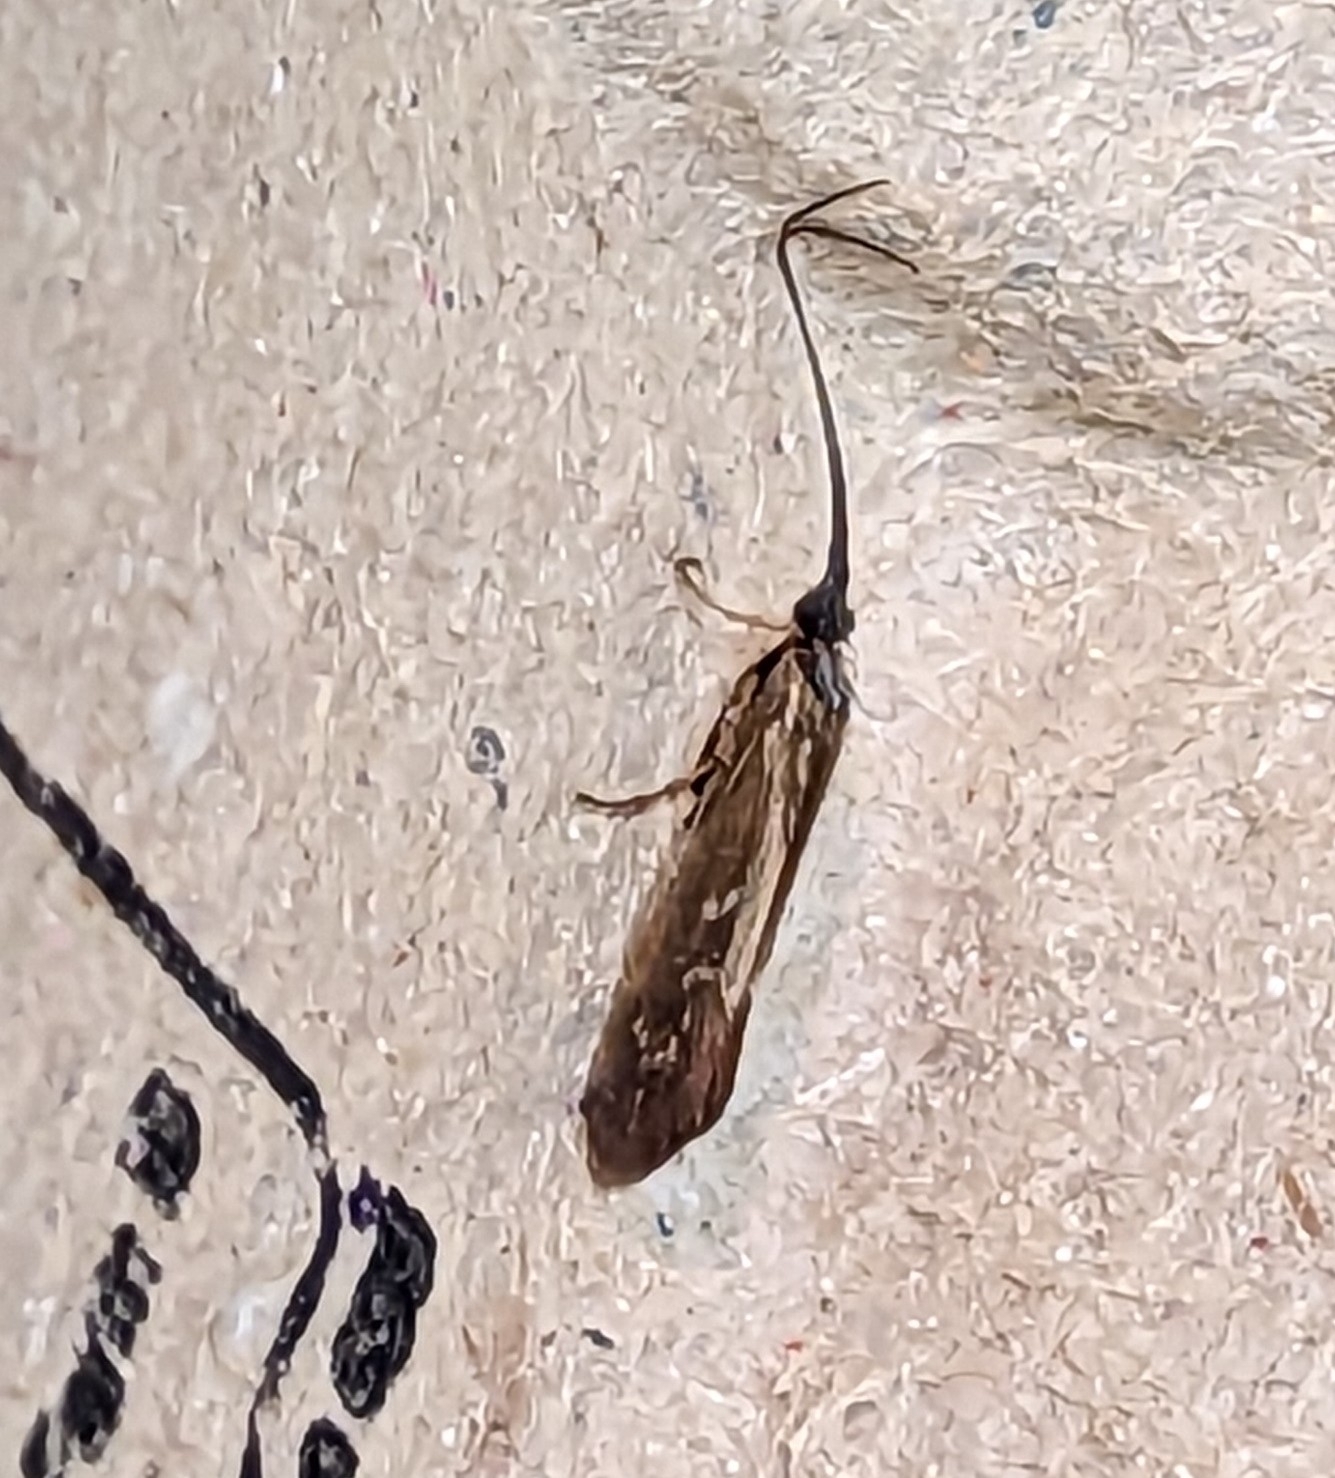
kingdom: Animalia
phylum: Arthropoda
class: Insecta
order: Trichoptera
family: Limnephilidae
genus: Limnephilus
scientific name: Limnephilus auricula
